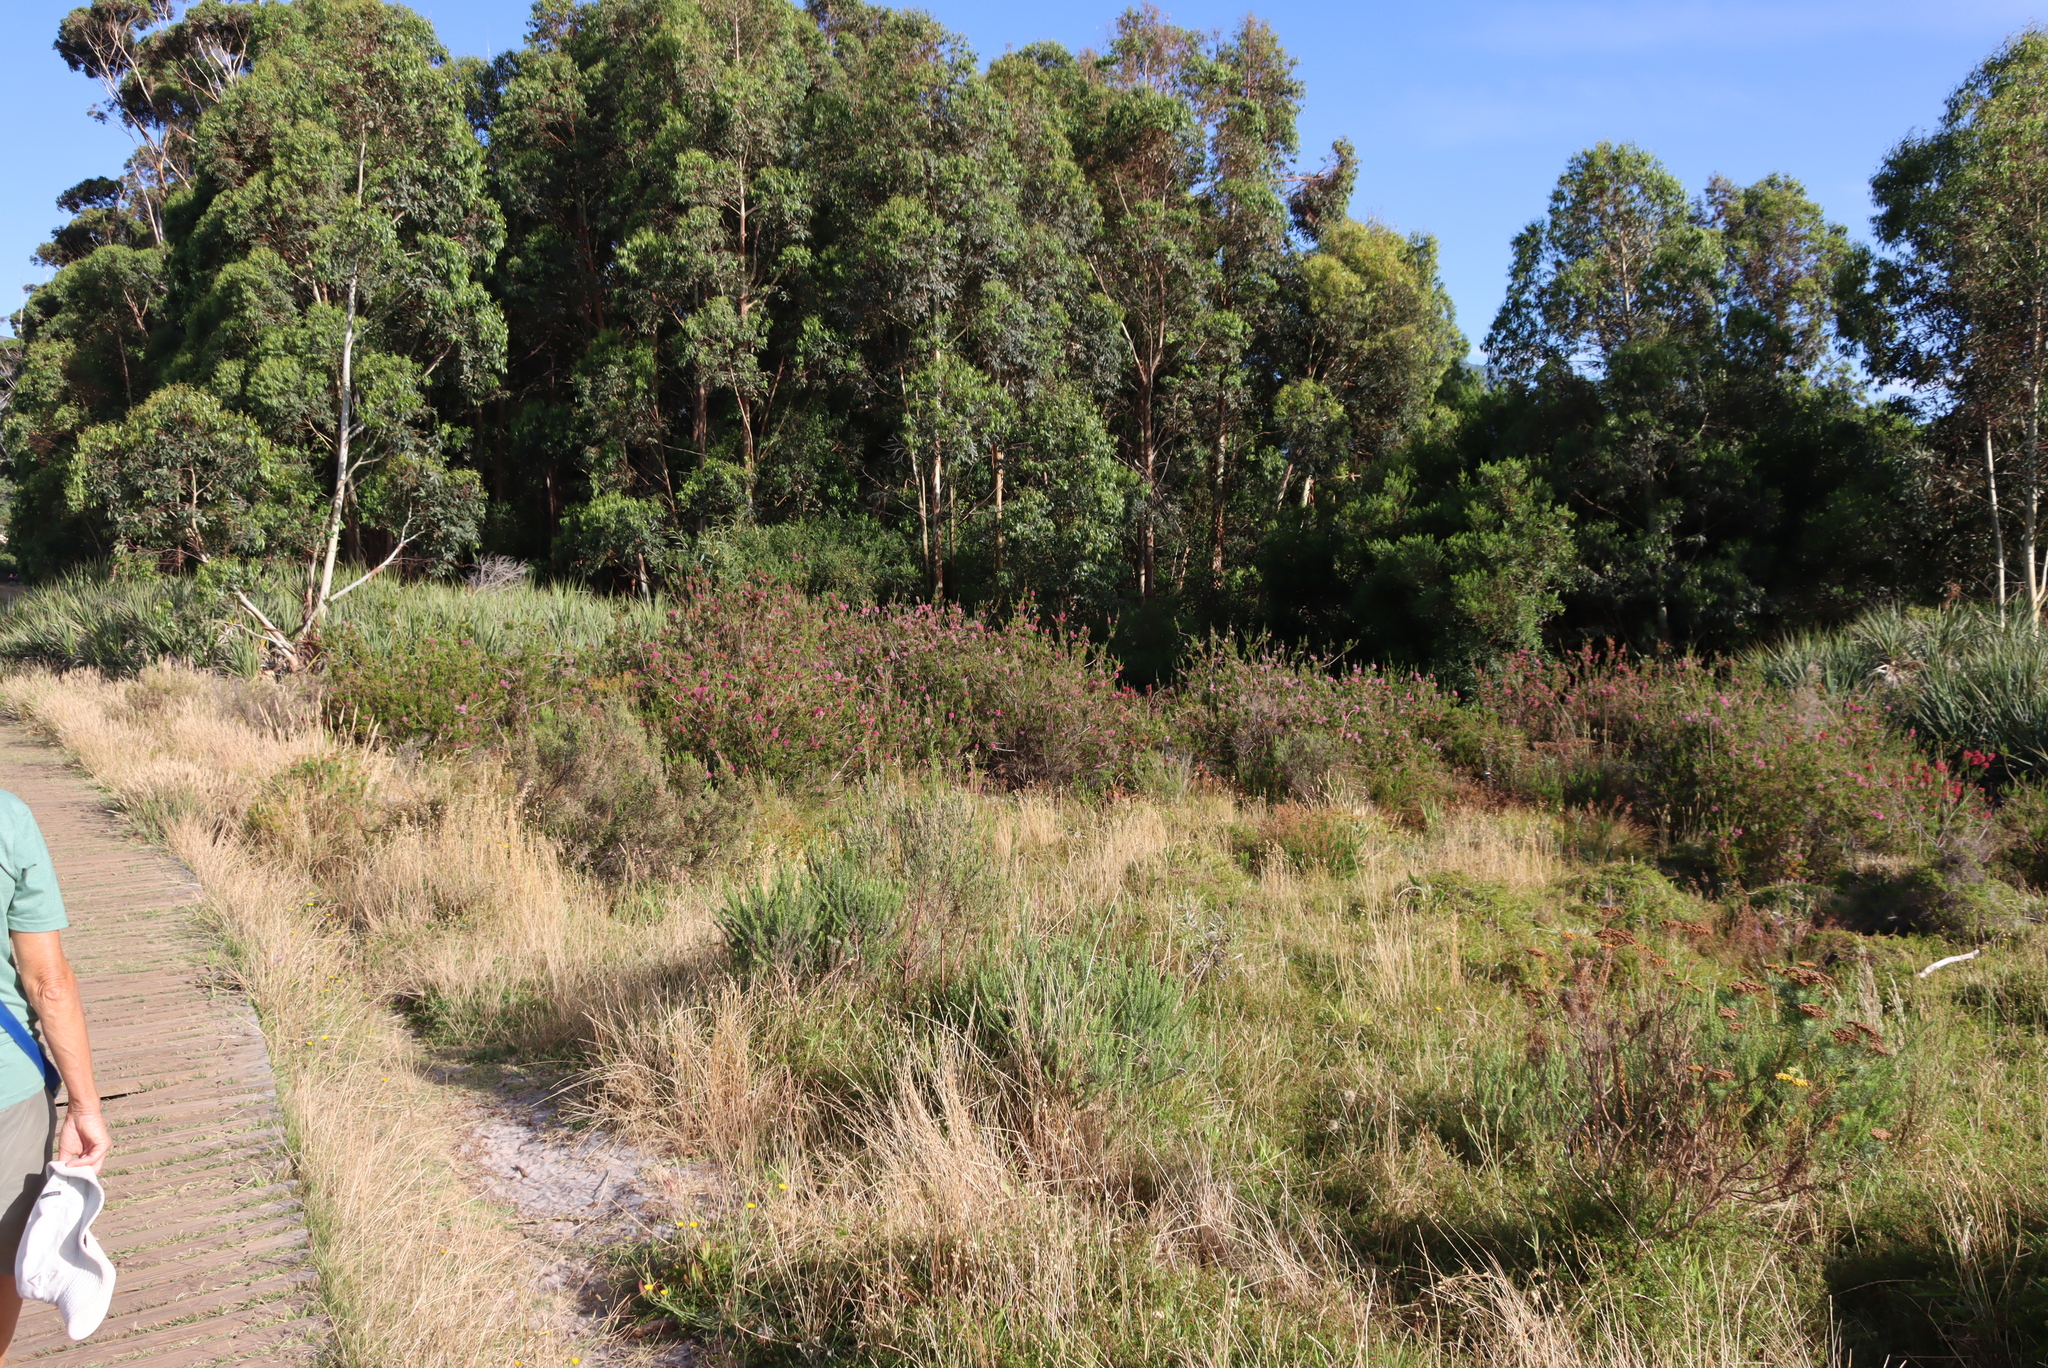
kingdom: Plantae
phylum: Tracheophyta
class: Magnoliopsida
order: Ericales
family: Ericaceae
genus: Erica
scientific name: Erica verticillata
